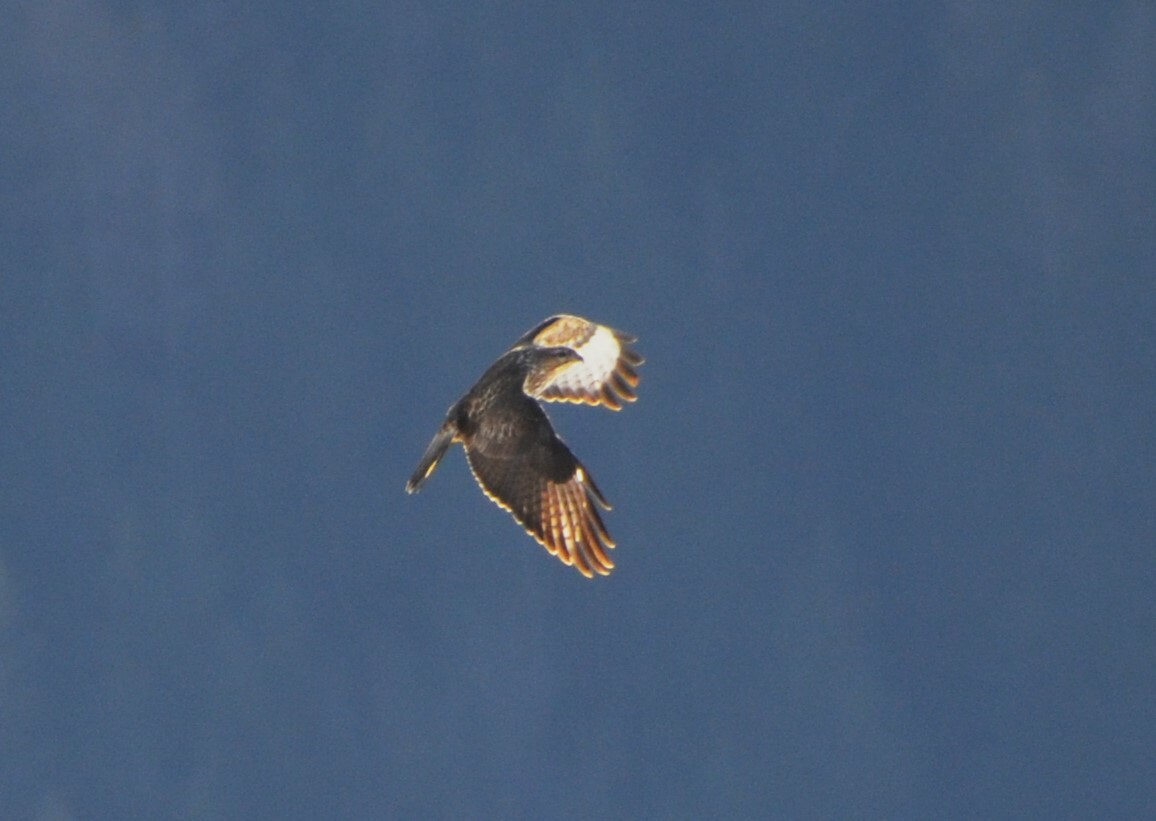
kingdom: Animalia
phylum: Chordata
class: Aves
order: Accipitriformes
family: Accipitridae
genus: Buteo
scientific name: Buteo buteo
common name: Common buzzard
